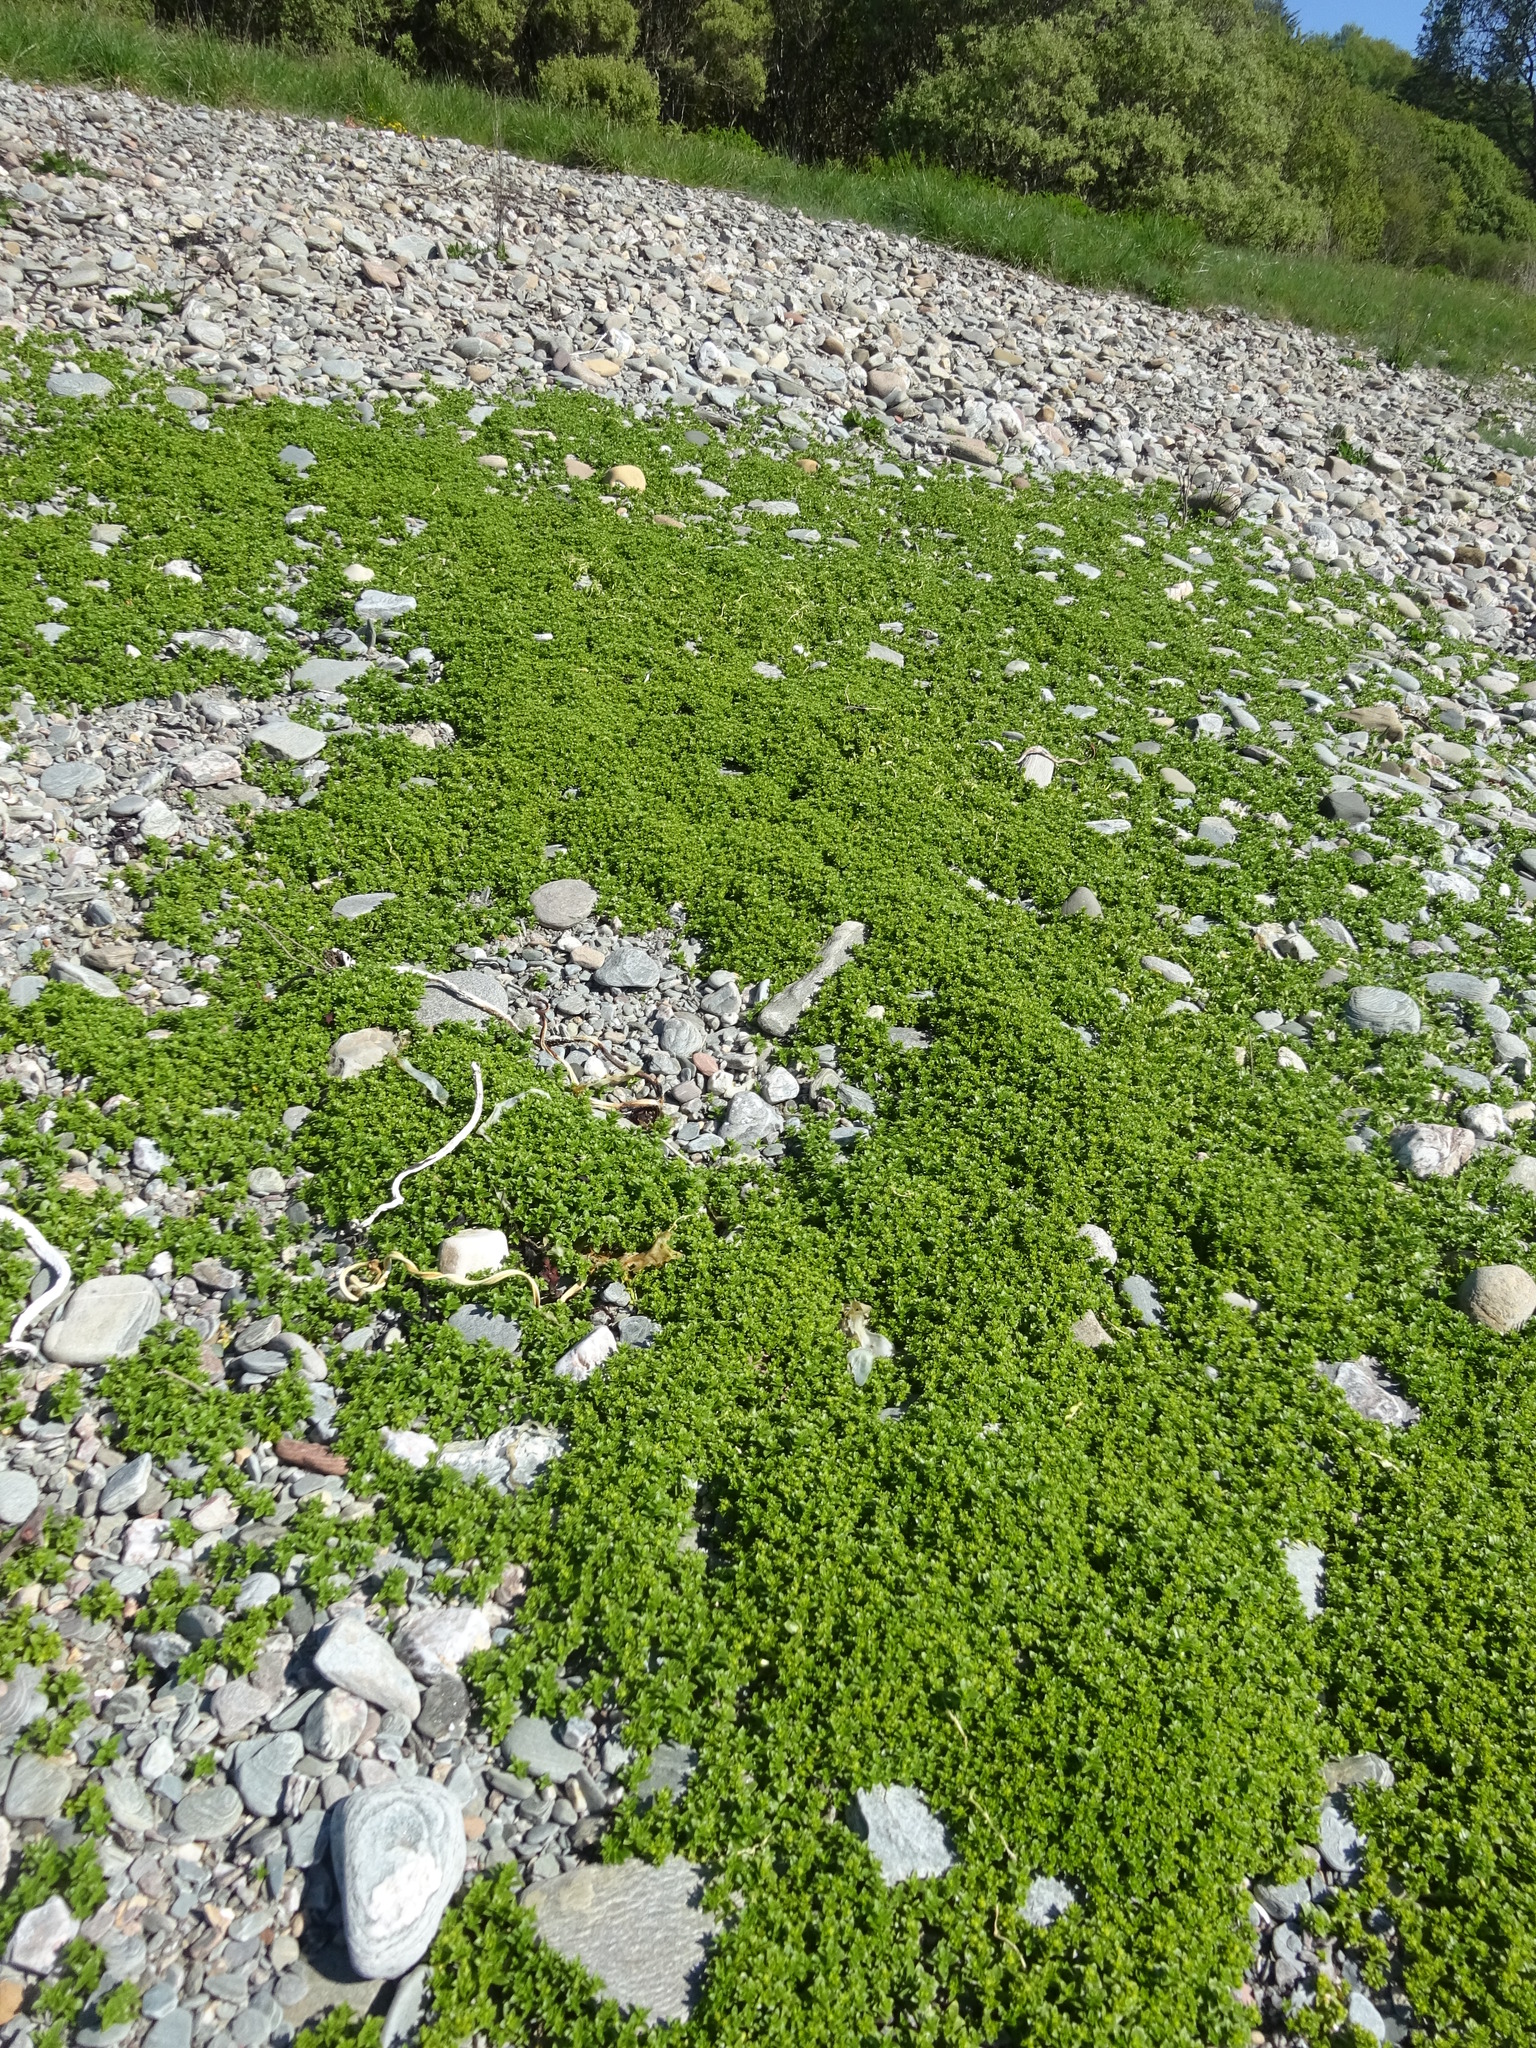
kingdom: Plantae
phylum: Tracheophyta
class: Magnoliopsida
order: Caryophyllales
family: Caryophyllaceae
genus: Honckenya
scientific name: Honckenya peploides
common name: Sea sandwort
